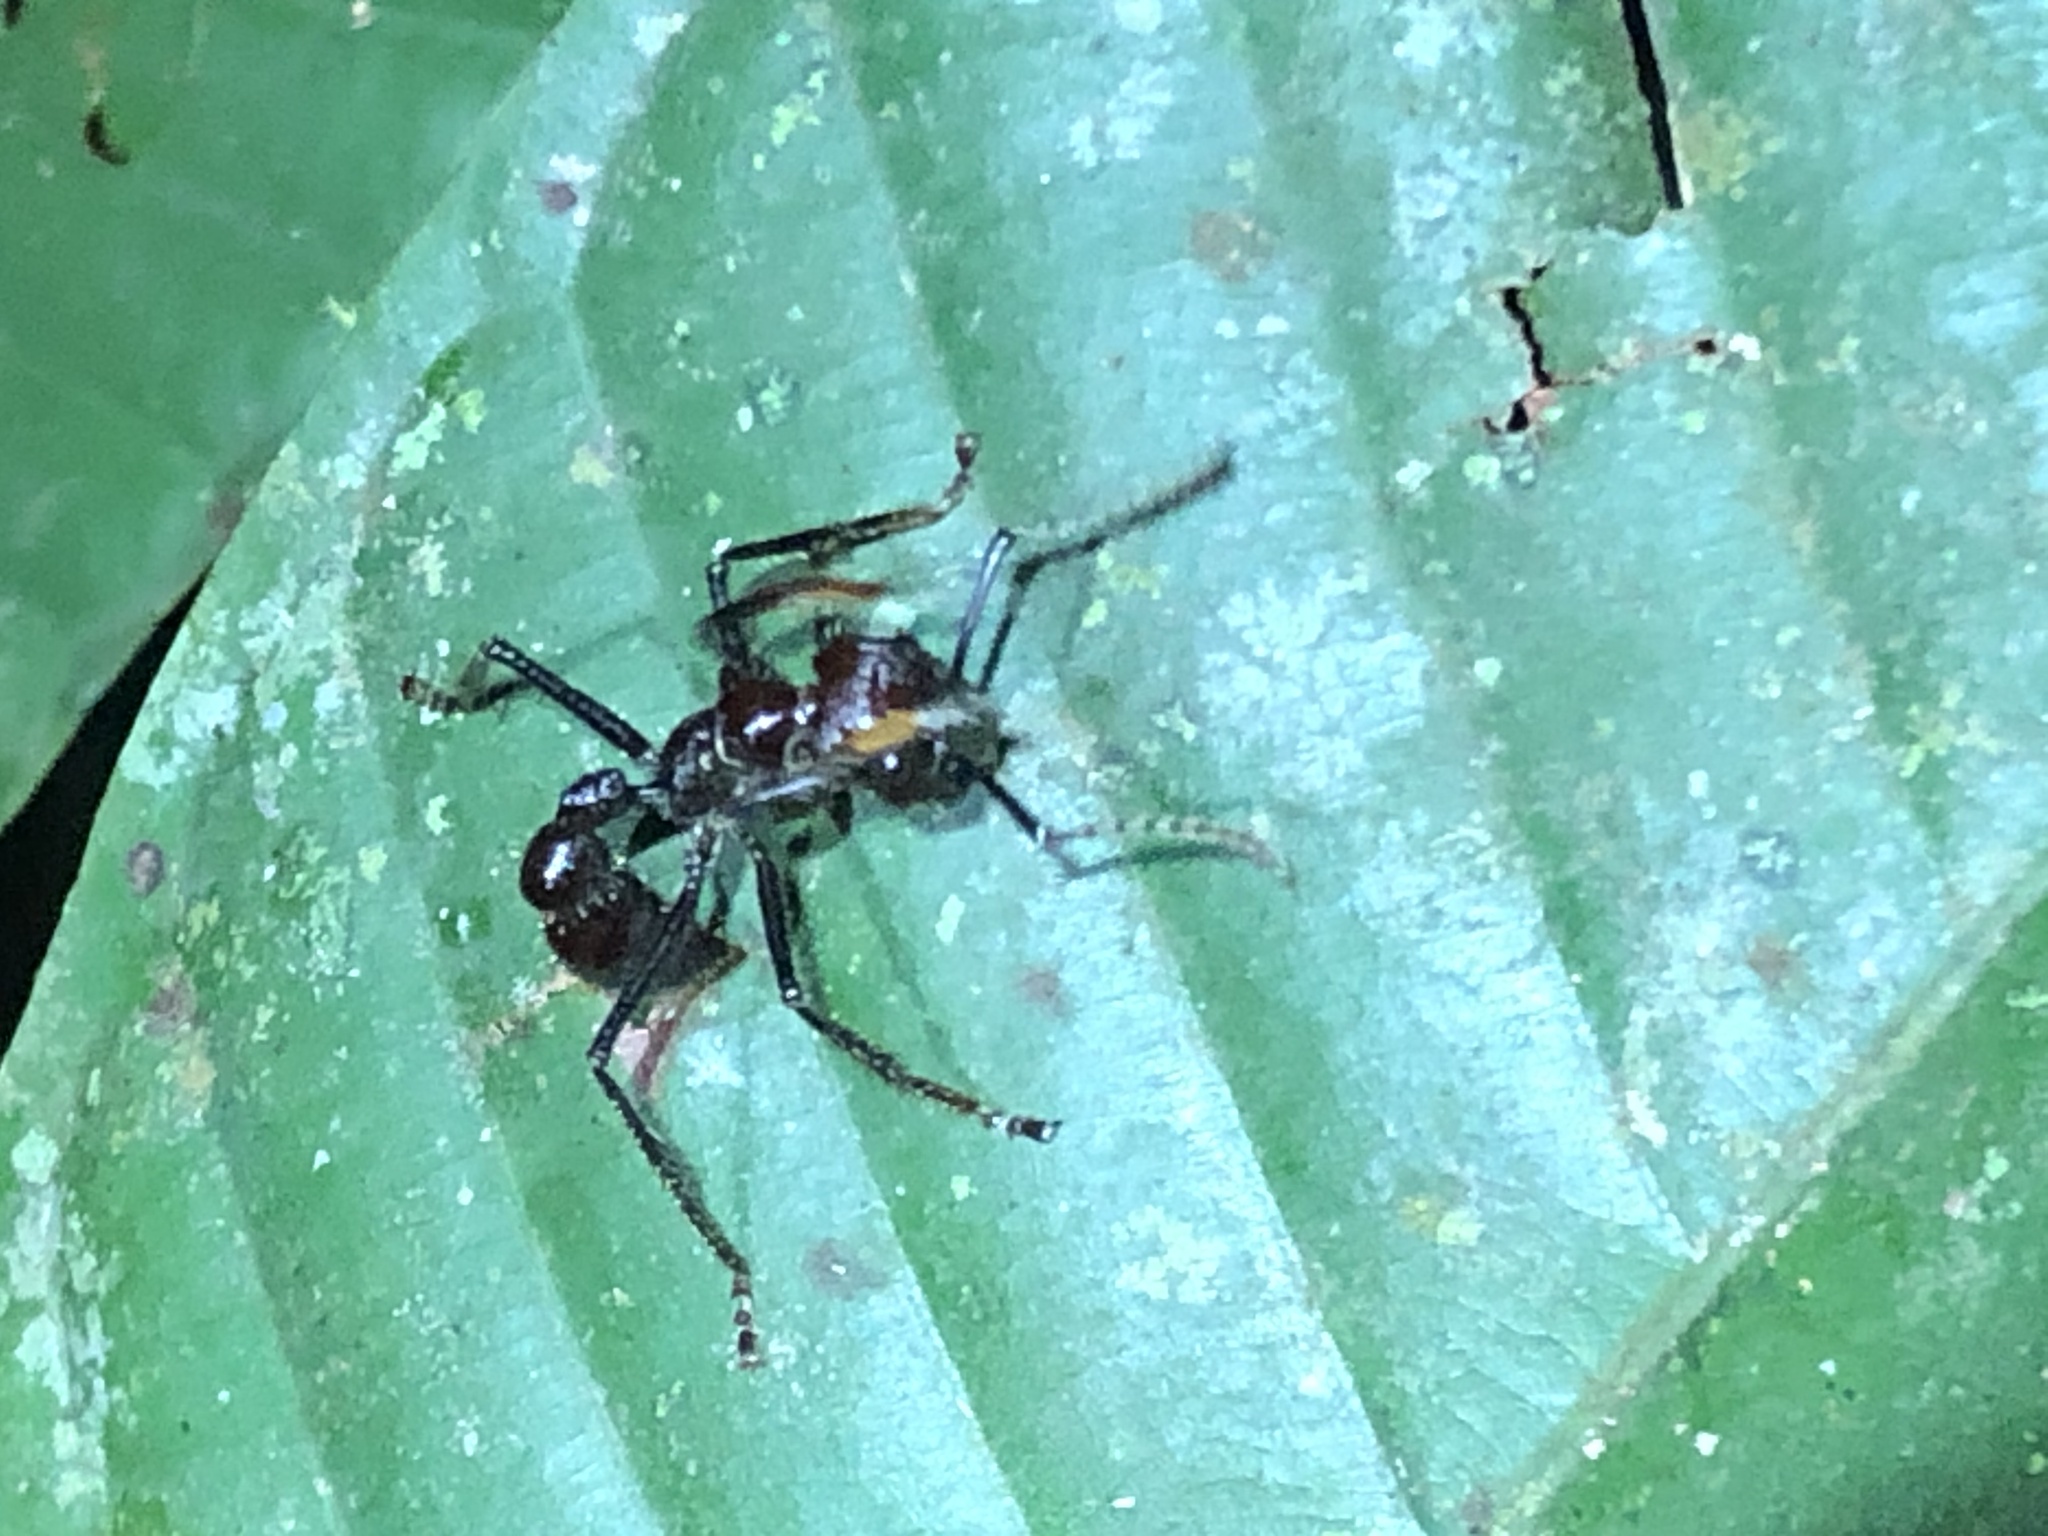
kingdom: Animalia
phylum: Arthropoda
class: Insecta
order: Hymenoptera
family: Formicidae
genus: Paraponera
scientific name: Paraponera clavata
